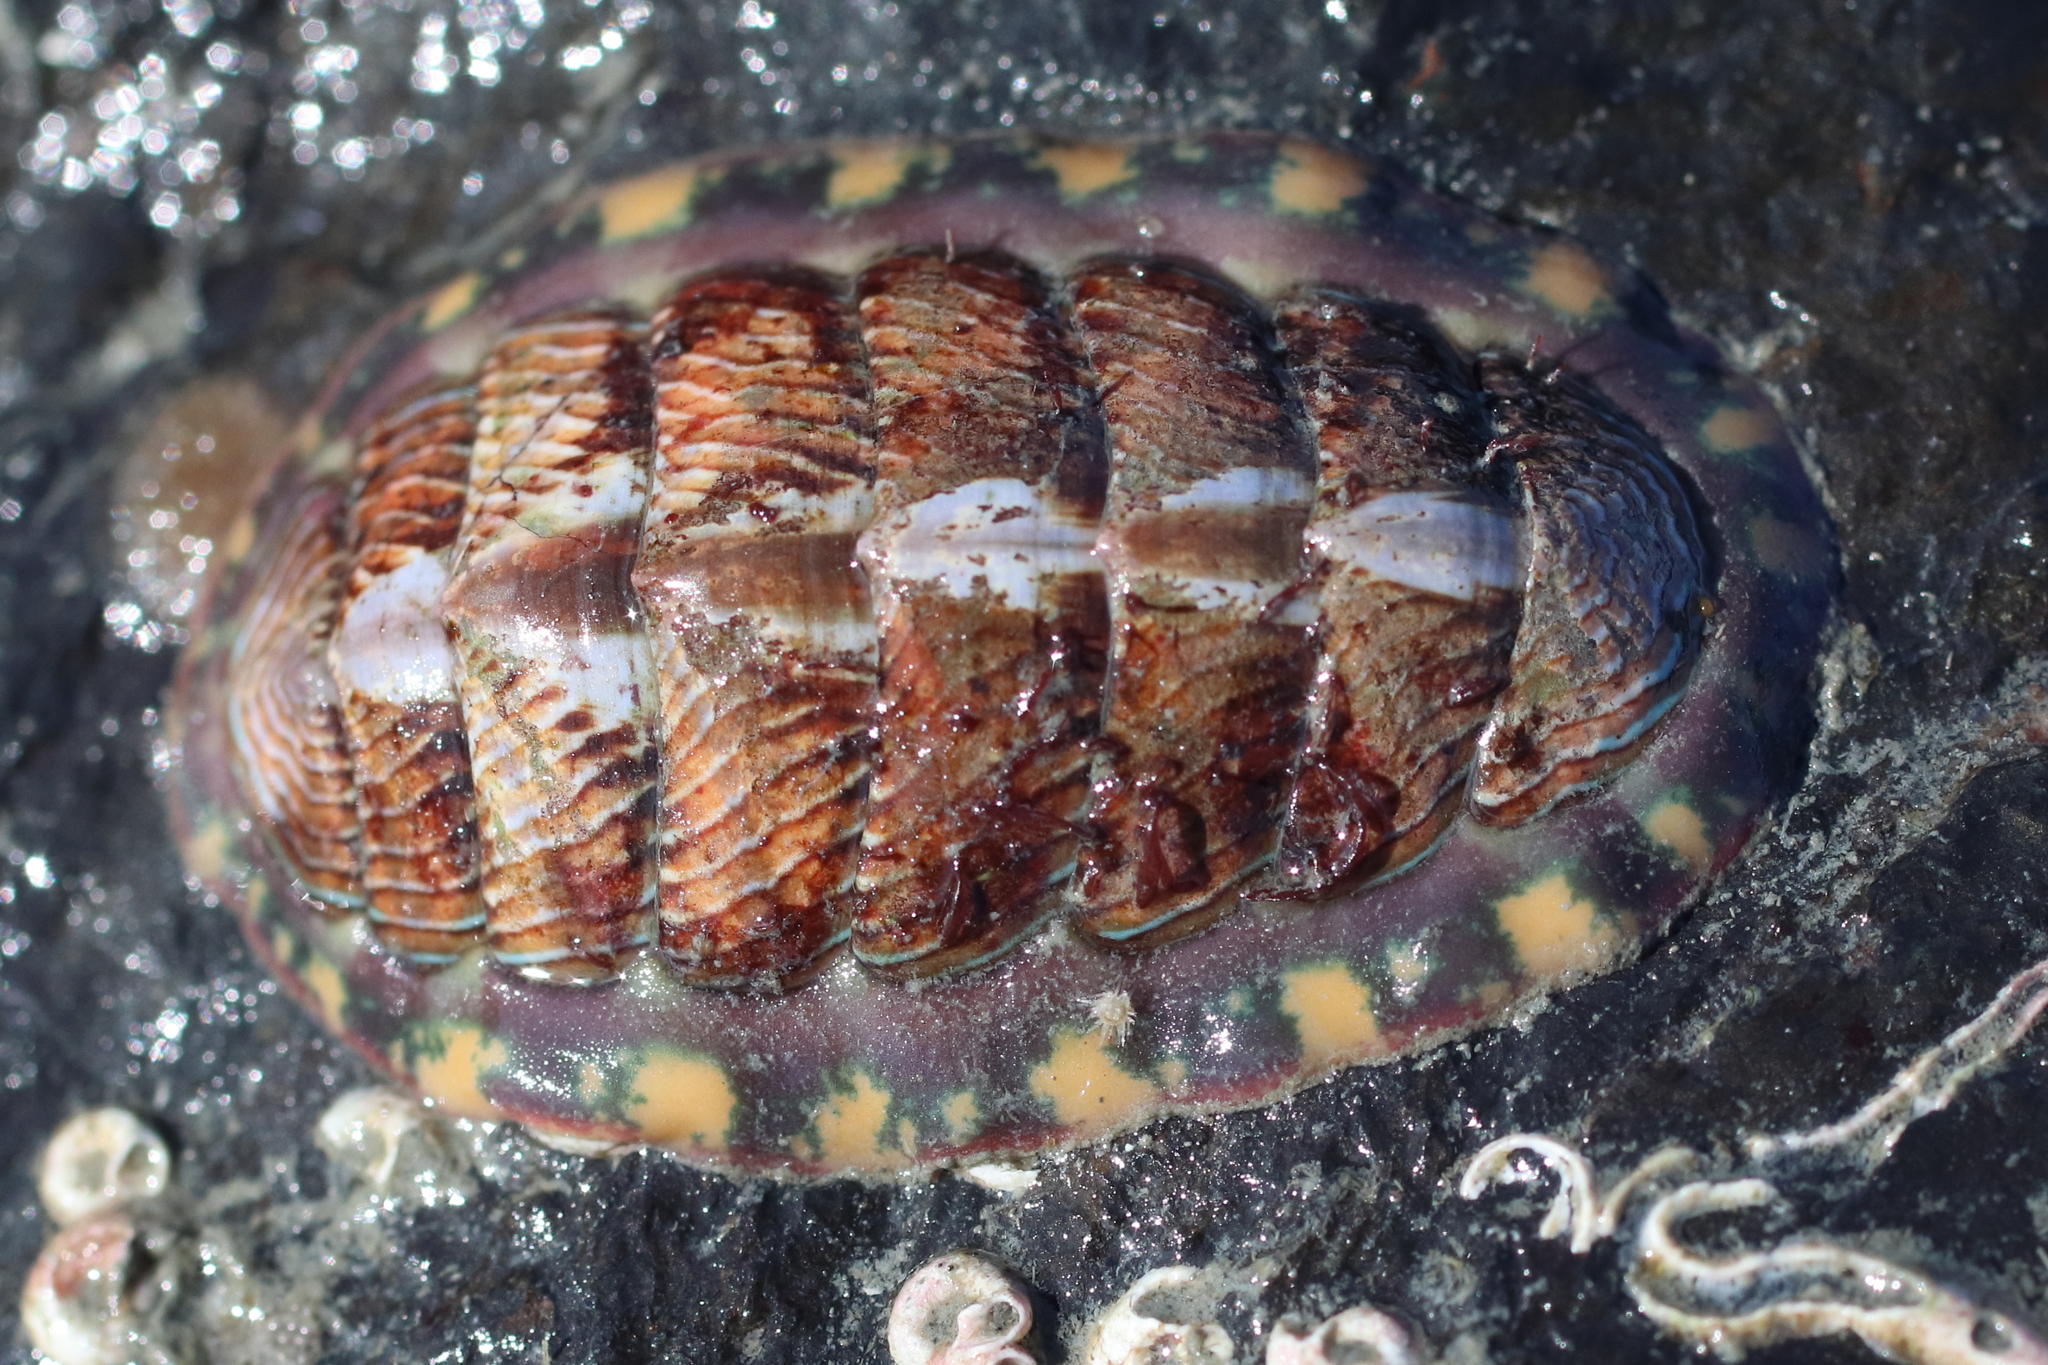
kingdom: Animalia
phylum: Mollusca
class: Polyplacophora
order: Chitonida
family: Tonicellidae
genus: Tonicella
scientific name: Tonicella lineata
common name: Lined chiton
